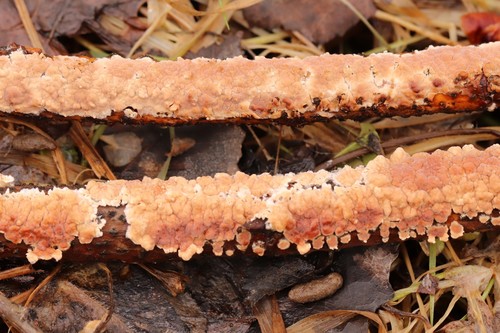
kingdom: Fungi
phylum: Basidiomycota
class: Agaricomycetes
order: Russulales
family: Peniophoraceae
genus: Peniophora
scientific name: Peniophora incarnata
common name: Rosy crust
